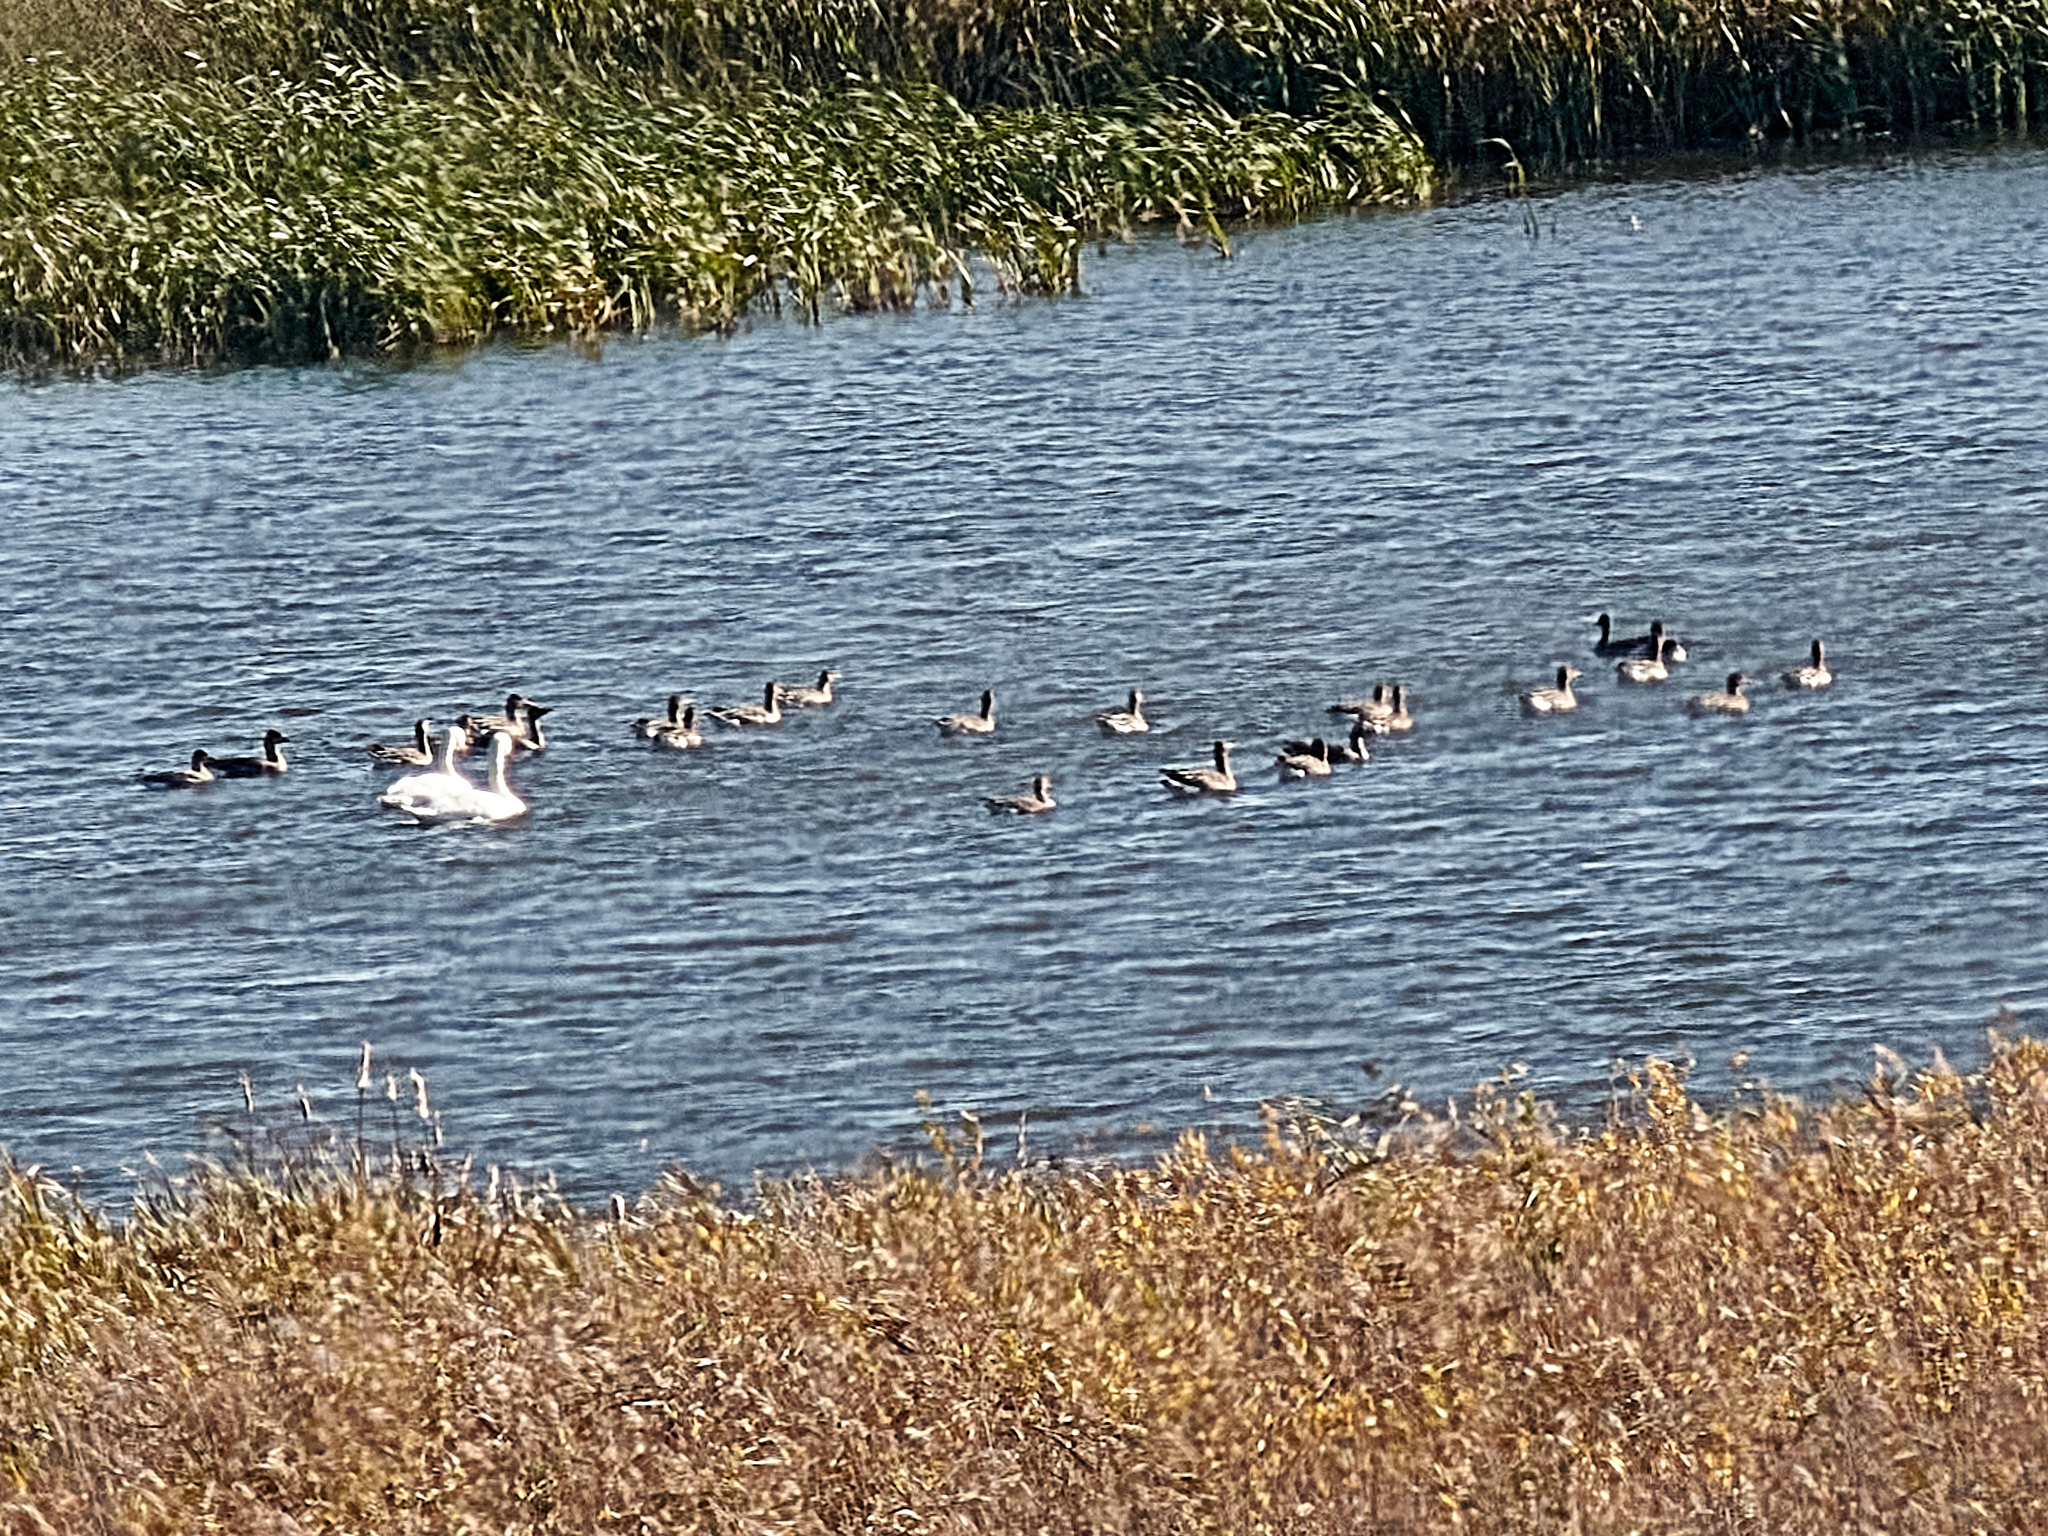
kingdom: Animalia
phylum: Chordata
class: Aves
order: Anseriformes
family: Anatidae
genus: Anser
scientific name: Anser serrirostris
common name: Tundra bean goose
